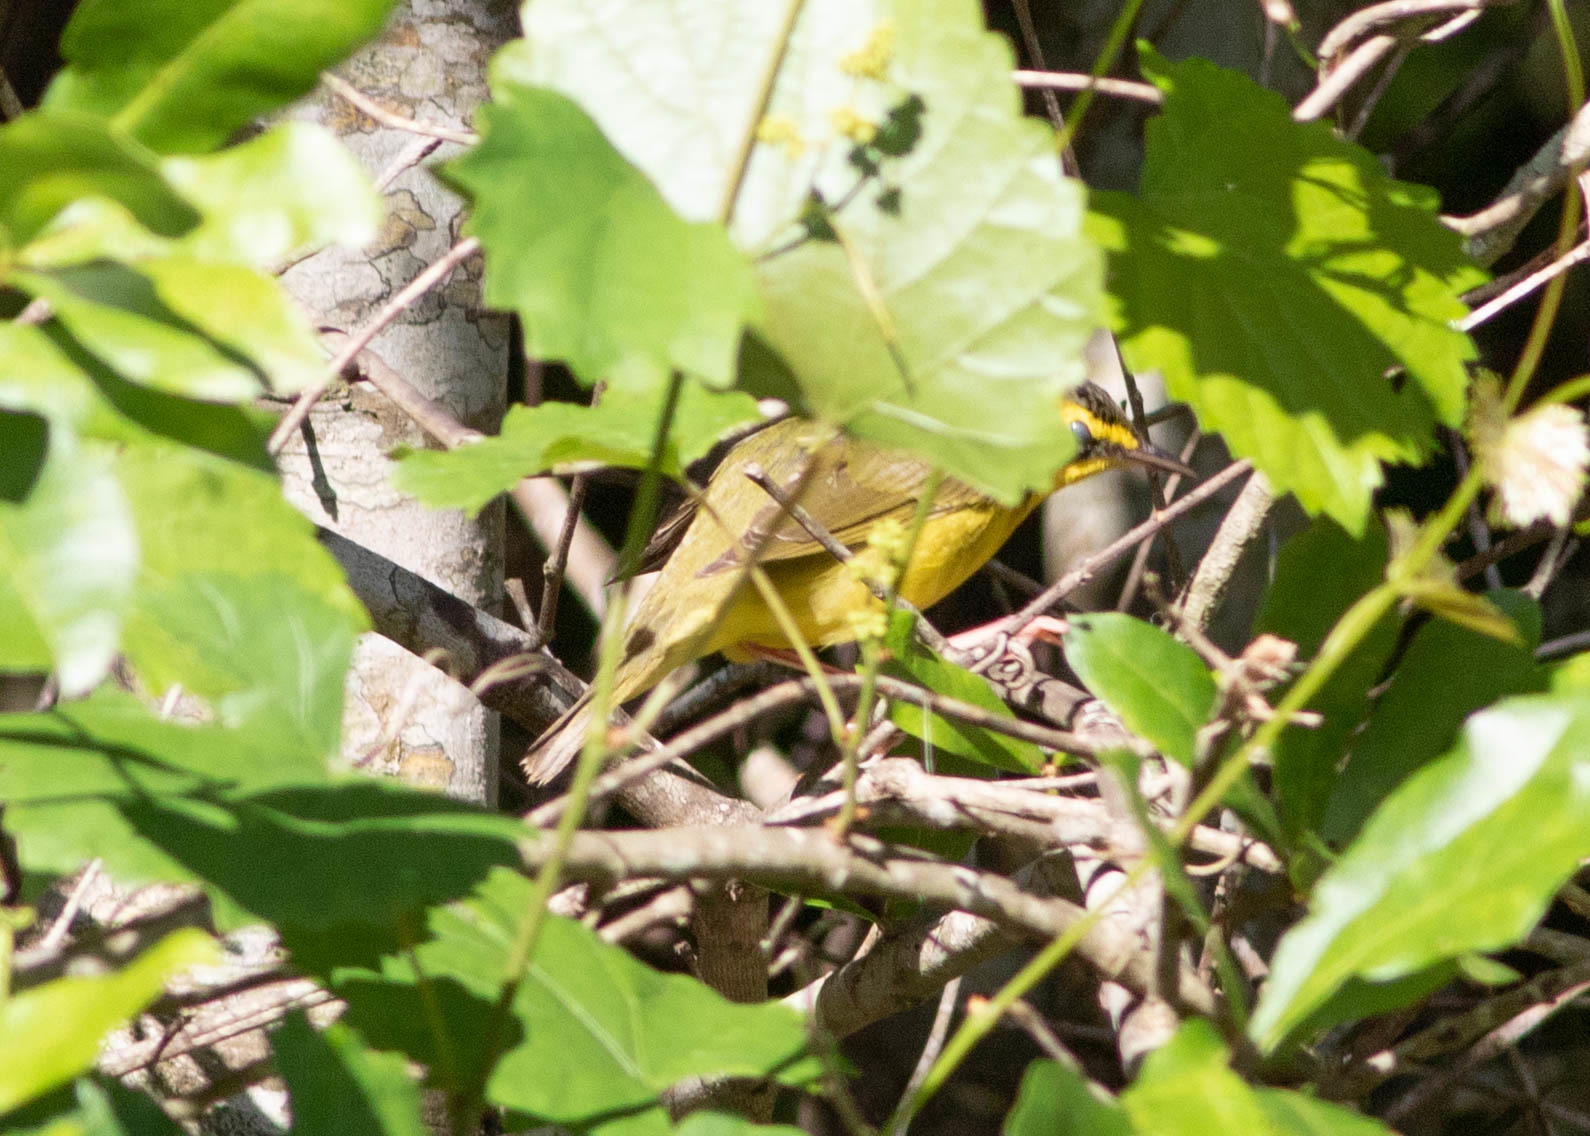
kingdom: Animalia
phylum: Chordata
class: Aves
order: Passeriformes
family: Parulidae
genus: Setophaga
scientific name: Setophaga citrina
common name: Hooded warbler
